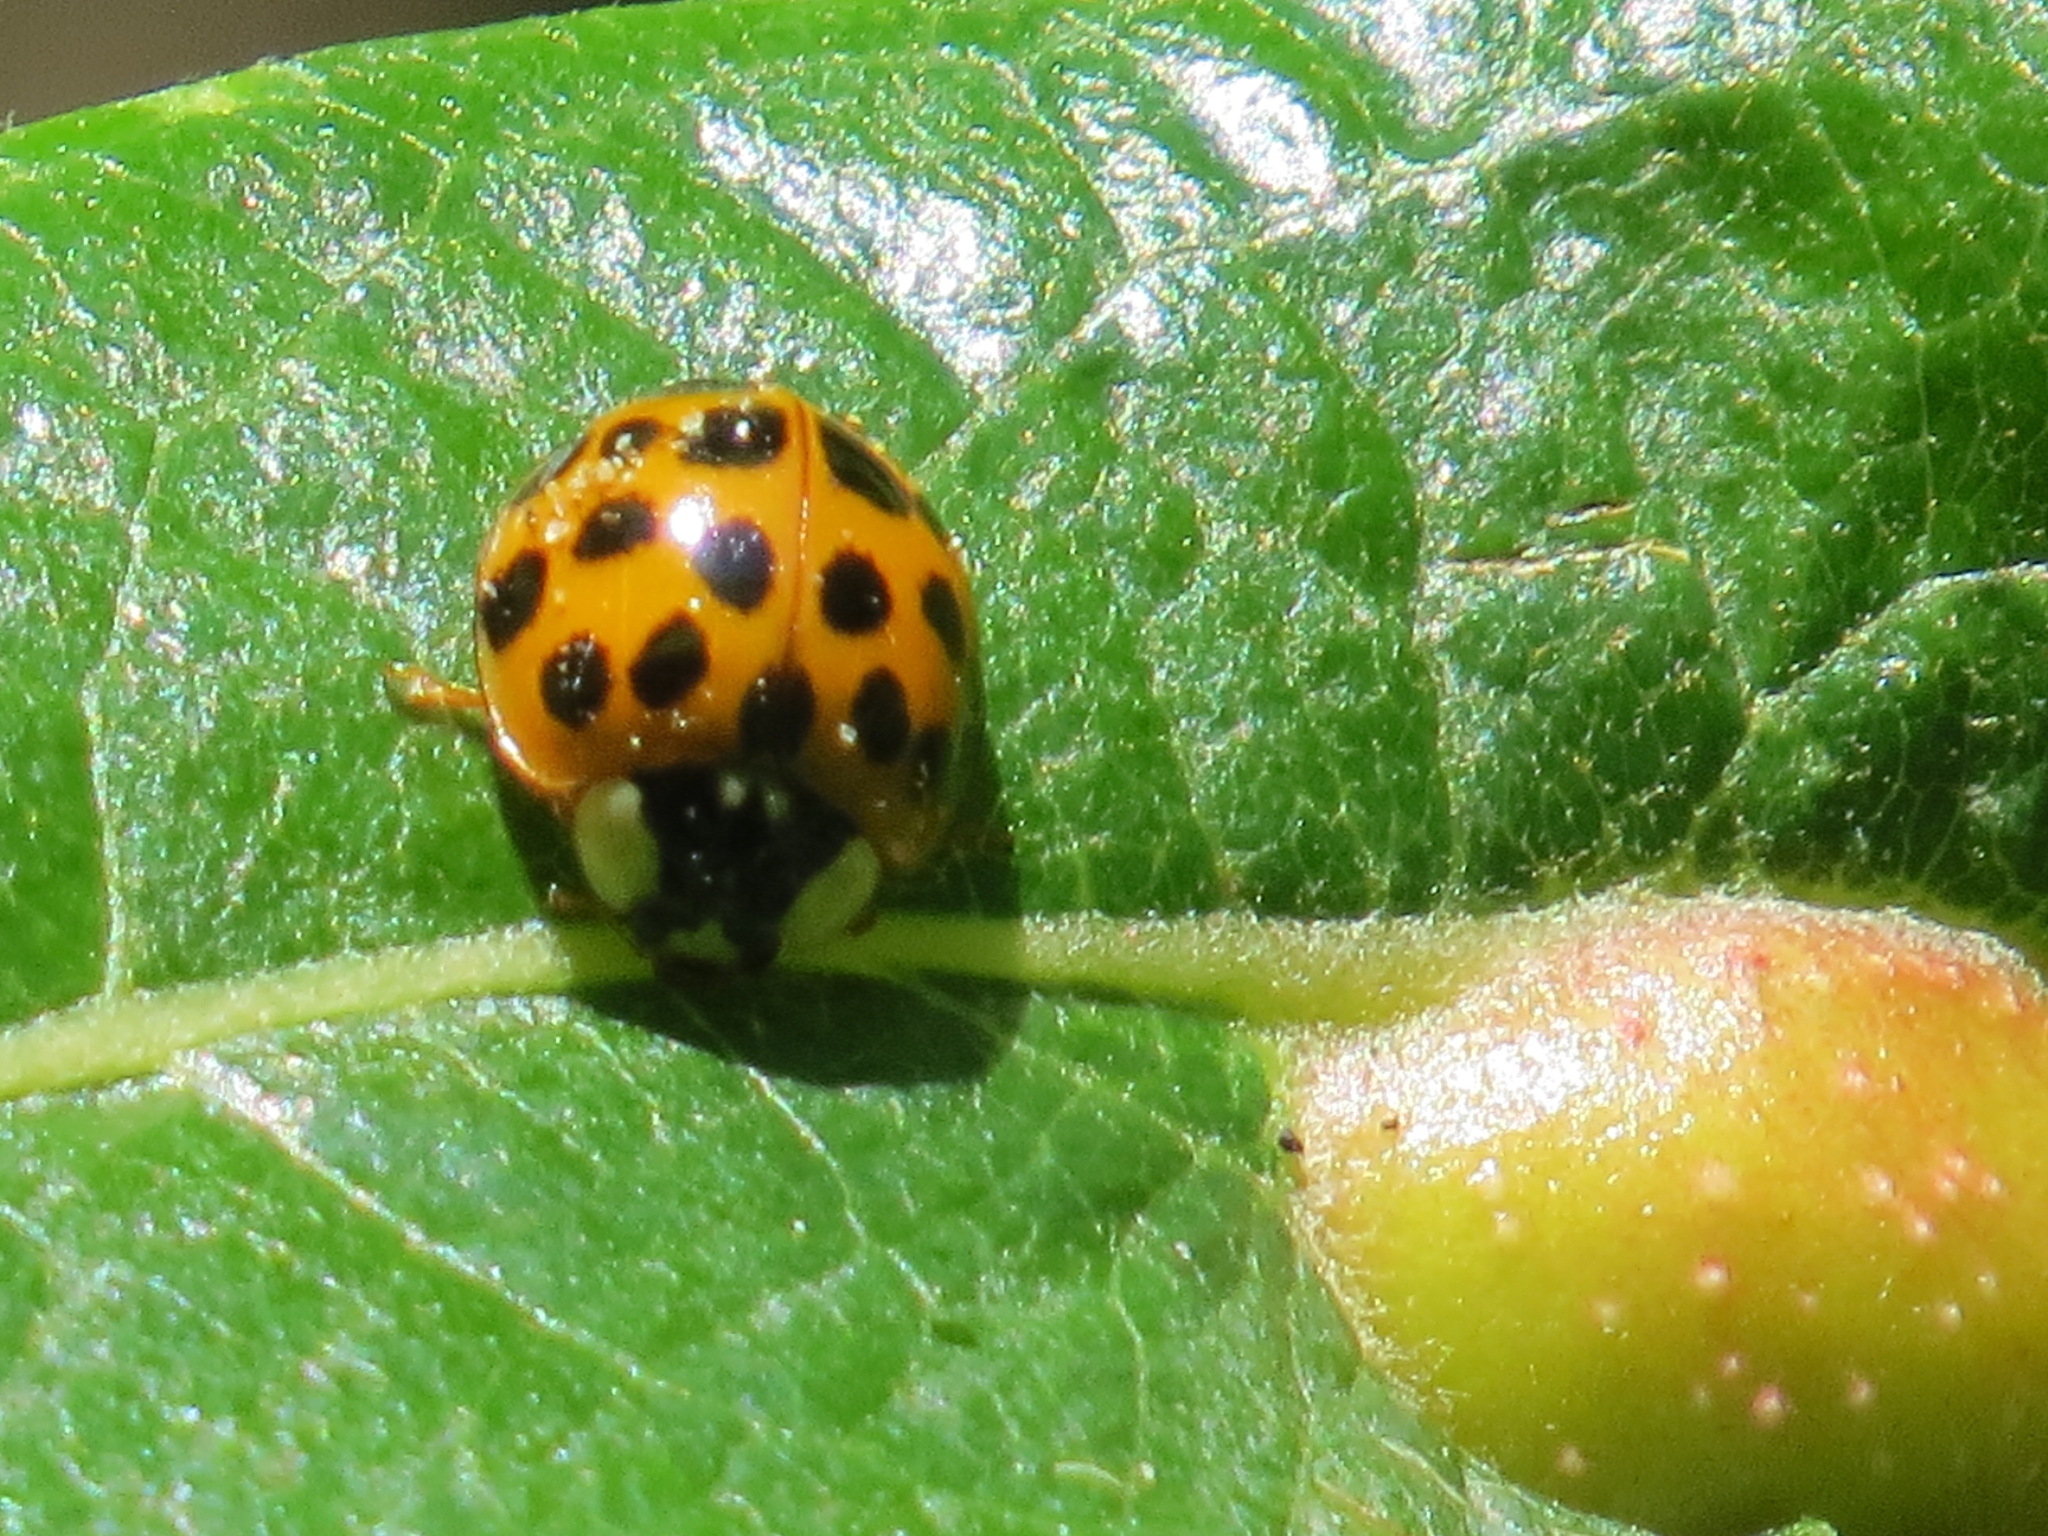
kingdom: Animalia
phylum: Arthropoda
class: Insecta
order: Coleoptera
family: Coccinellidae
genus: Harmonia
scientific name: Harmonia axyridis
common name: Harlequin ladybird
